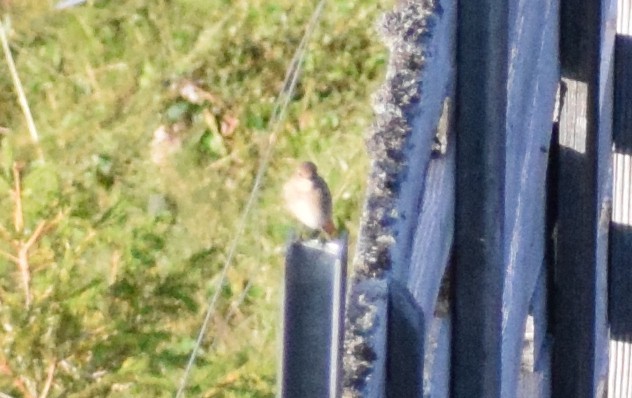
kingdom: Animalia
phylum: Chordata
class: Aves
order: Passeriformes
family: Muscicapidae
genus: Phoenicurus
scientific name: Phoenicurus phoenicurus
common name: Common redstart
